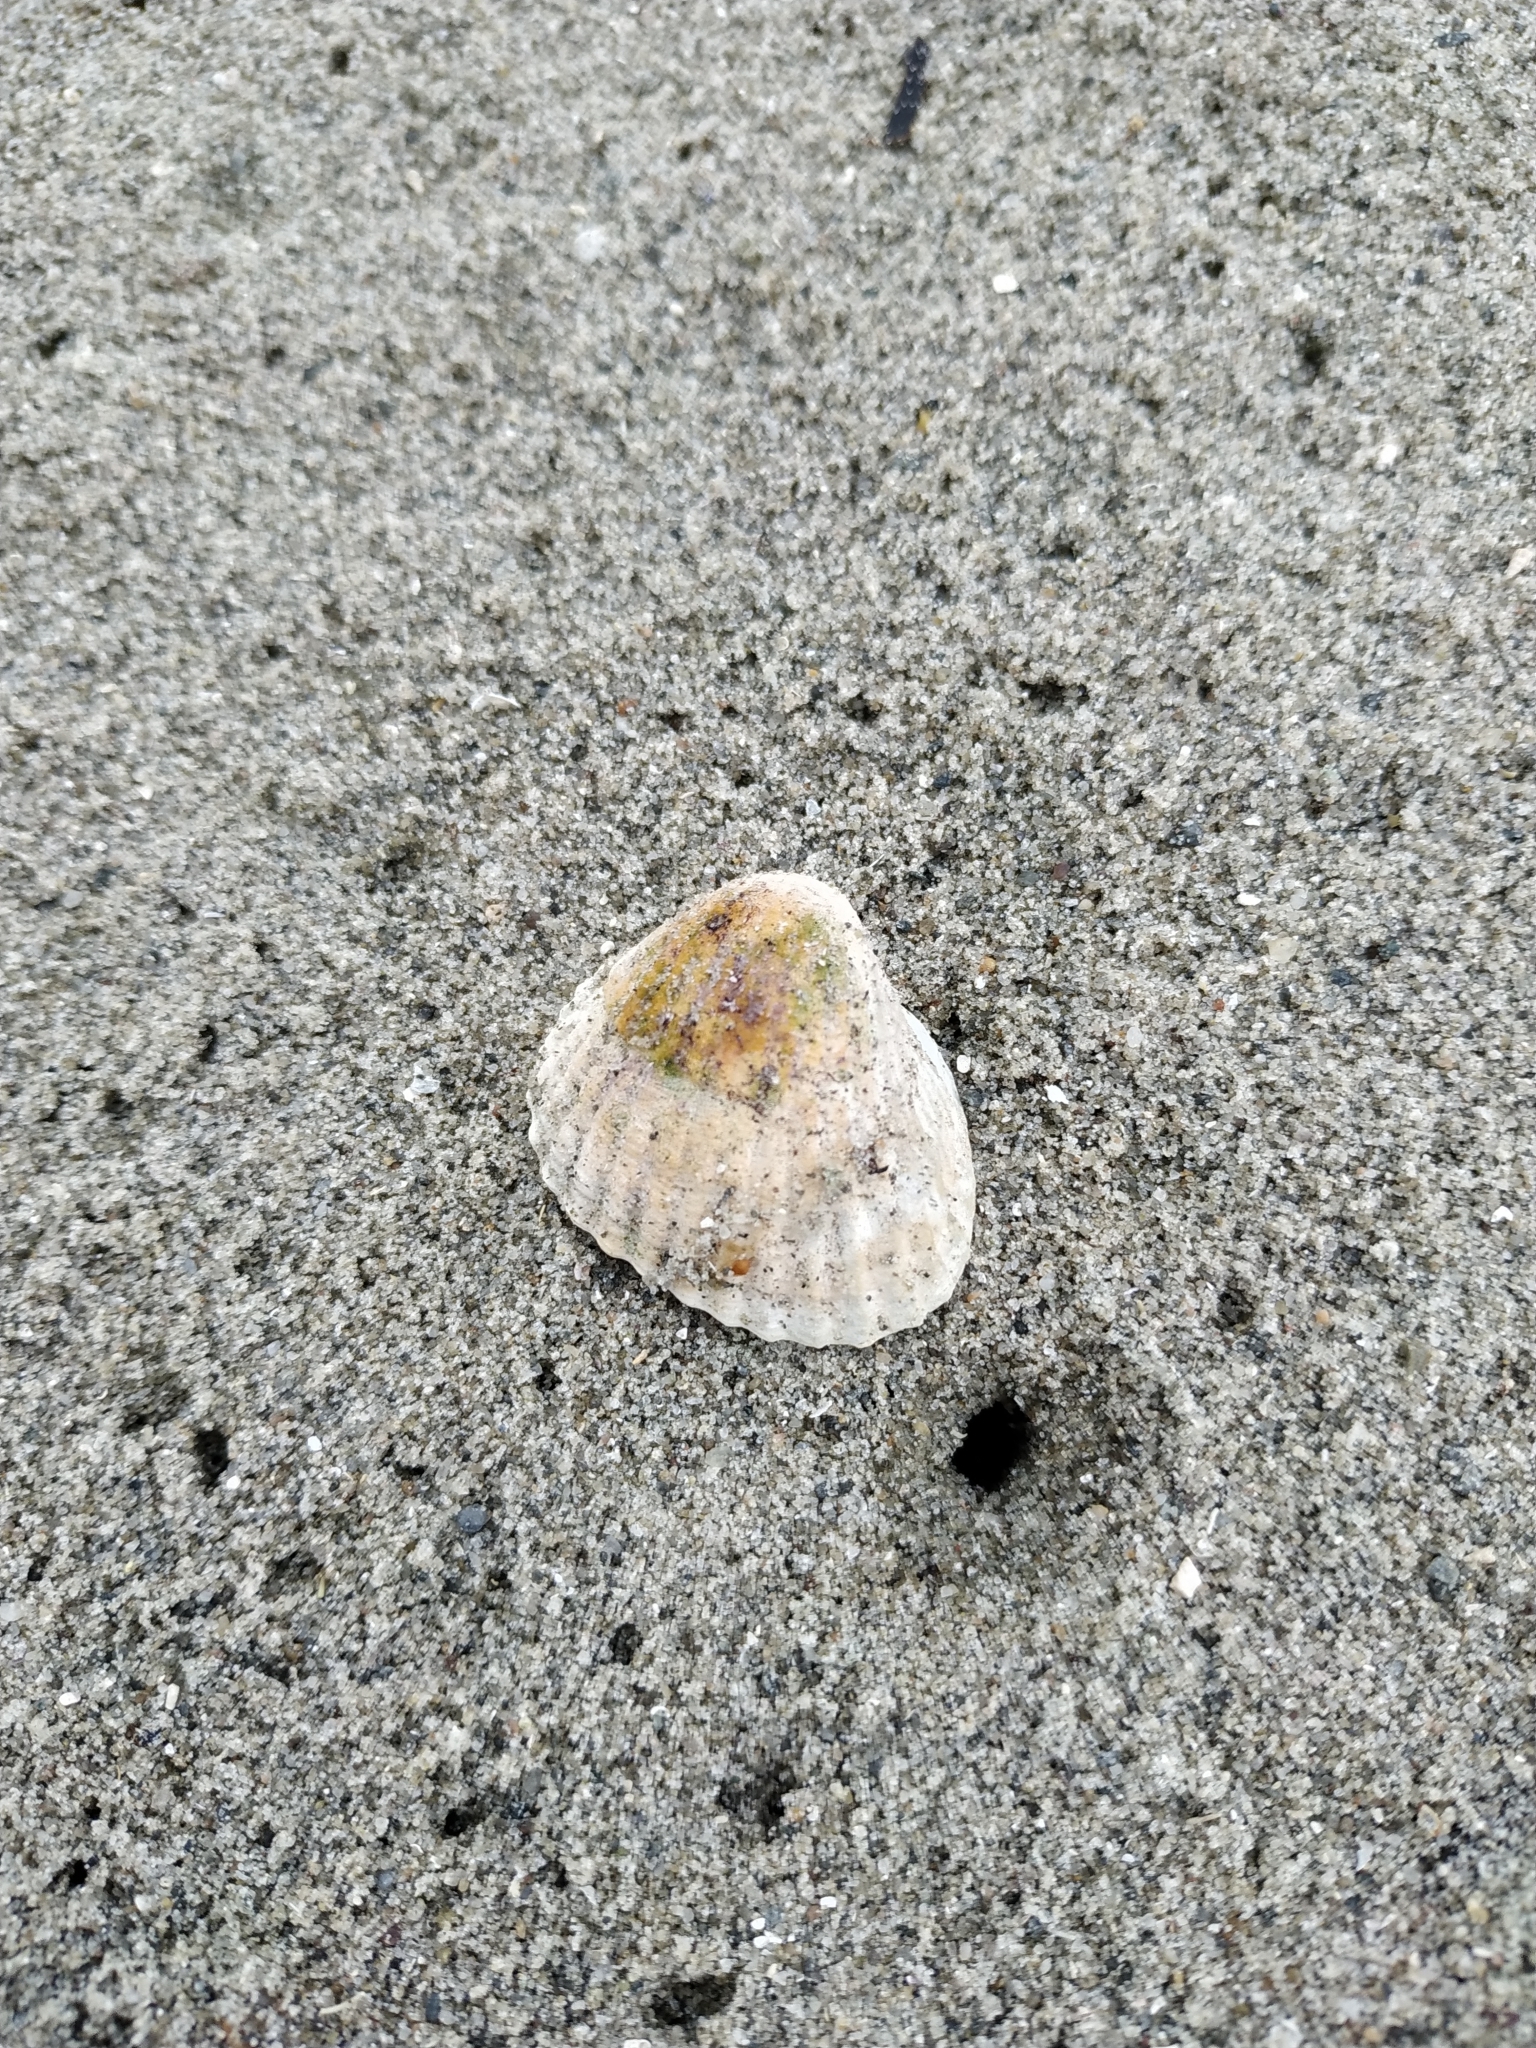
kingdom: Animalia
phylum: Mollusca
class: Bivalvia
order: Cardiida
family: Cardiidae
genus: Cerastoderma
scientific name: Cerastoderma edule
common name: Common cockle
